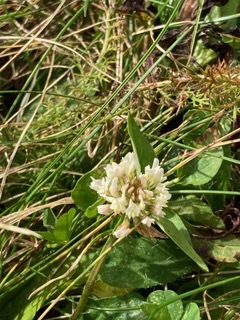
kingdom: Plantae
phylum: Tracheophyta
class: Magnoliopsida
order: Fabales
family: Fabaceae
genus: Trifolium
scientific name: Trifolium repens
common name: White clover
